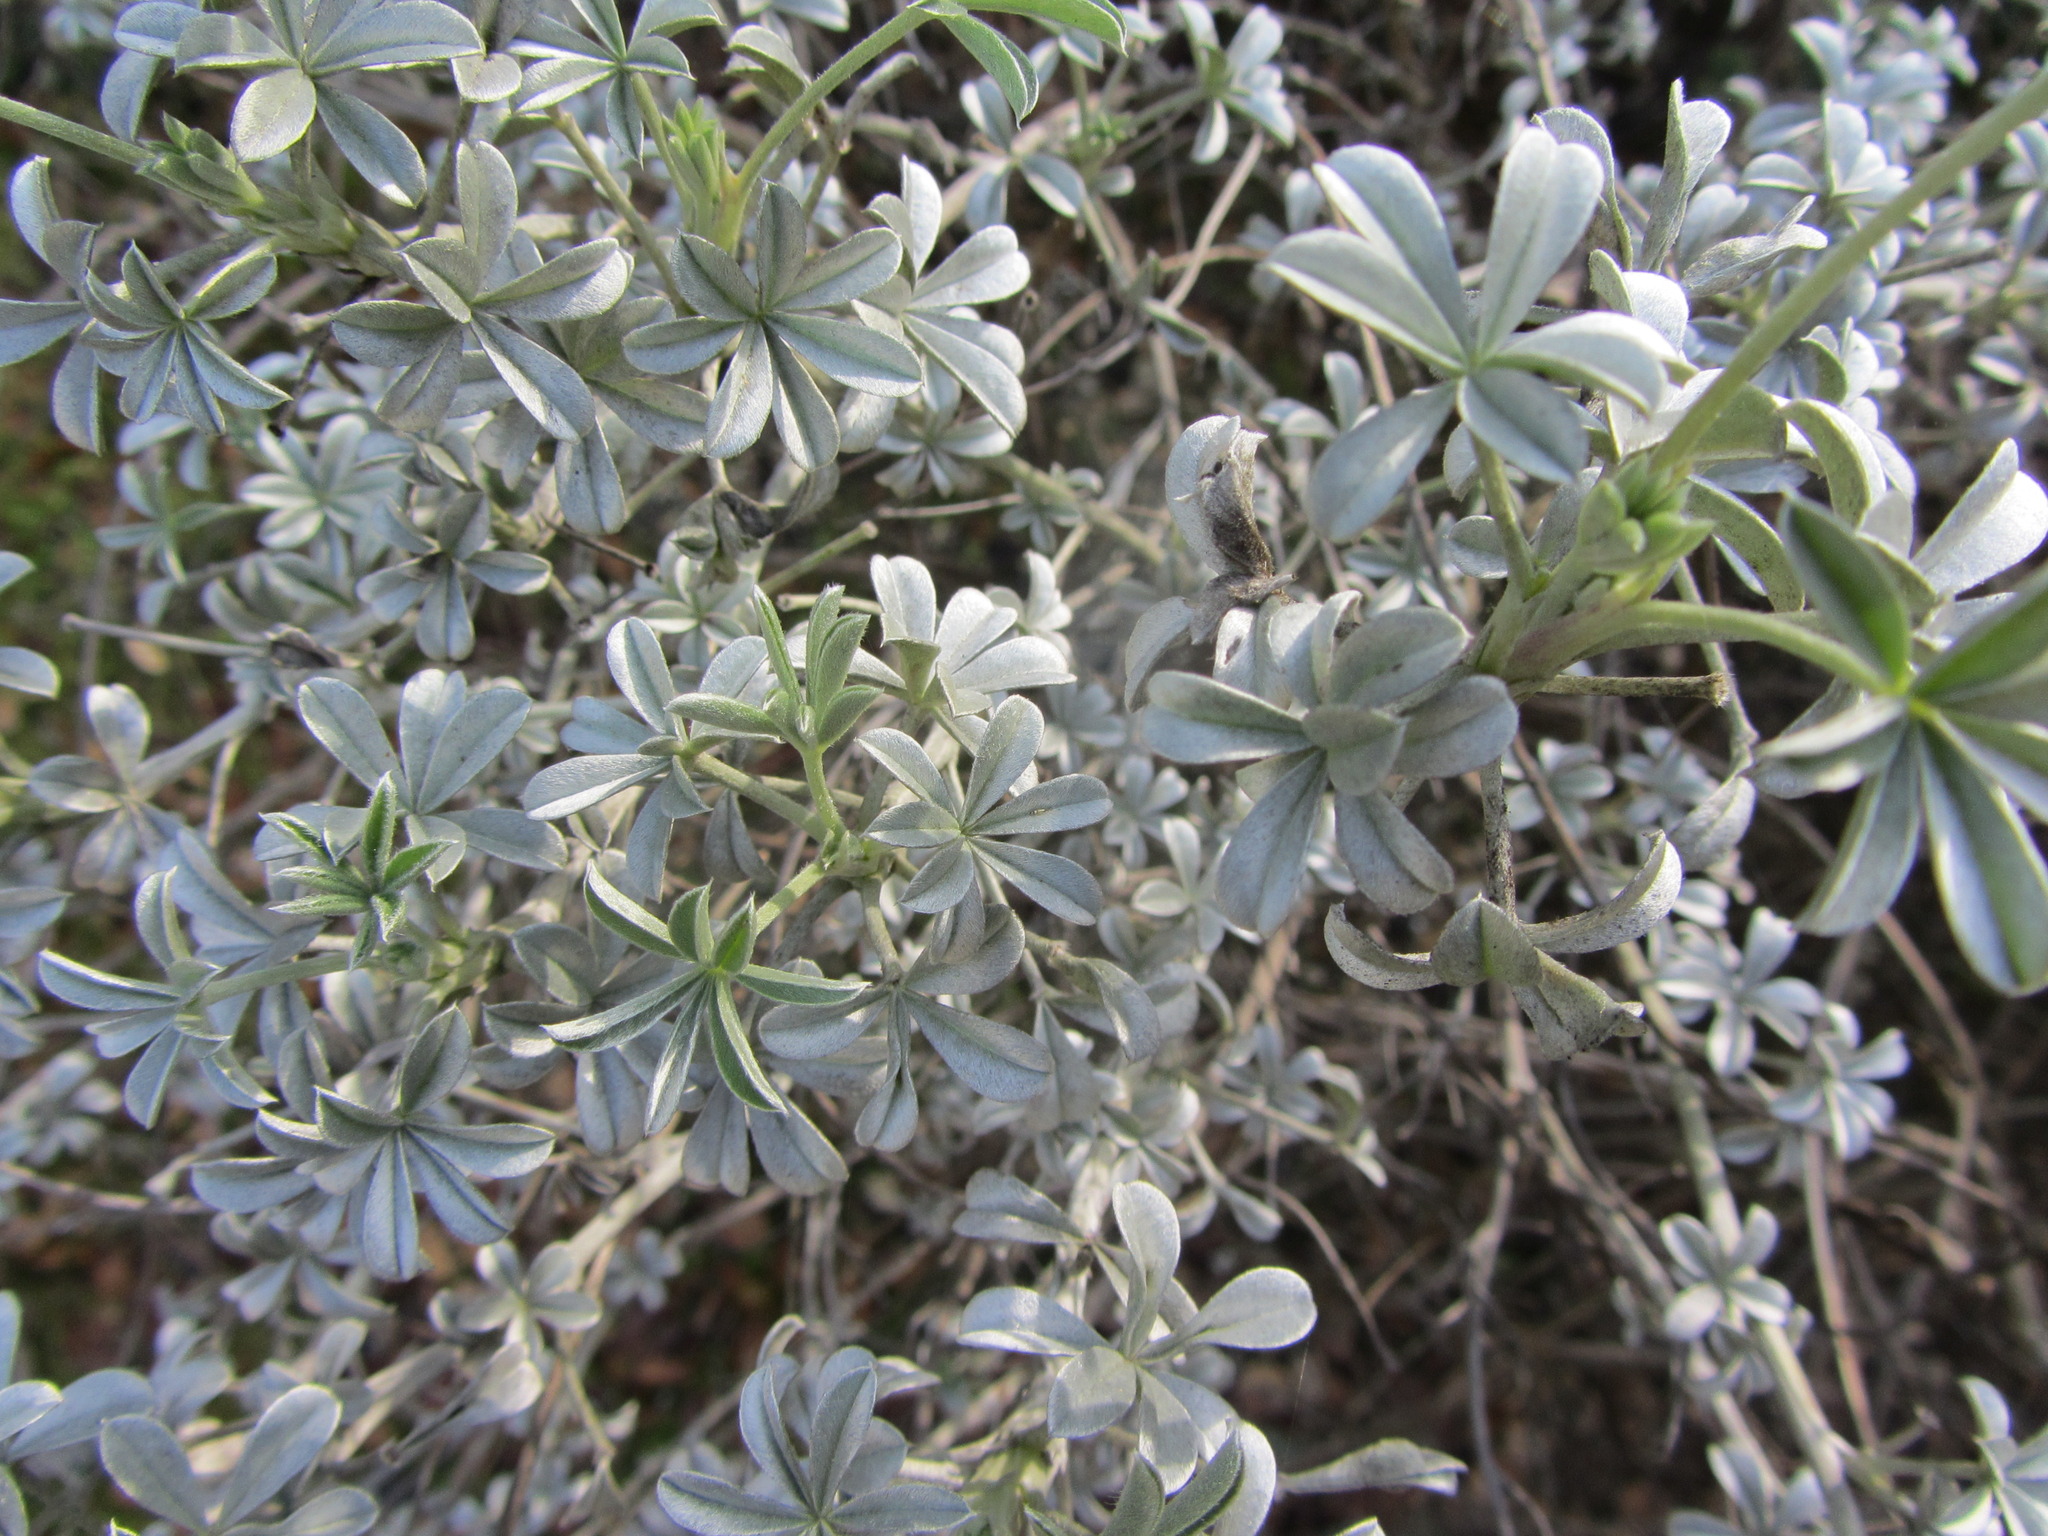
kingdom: Plantae
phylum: Tracheophyta
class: Magnoliopsida
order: Fabales
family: Fabaceae
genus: Lupinus
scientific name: Lupinus albifrons
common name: Foothill lupine
